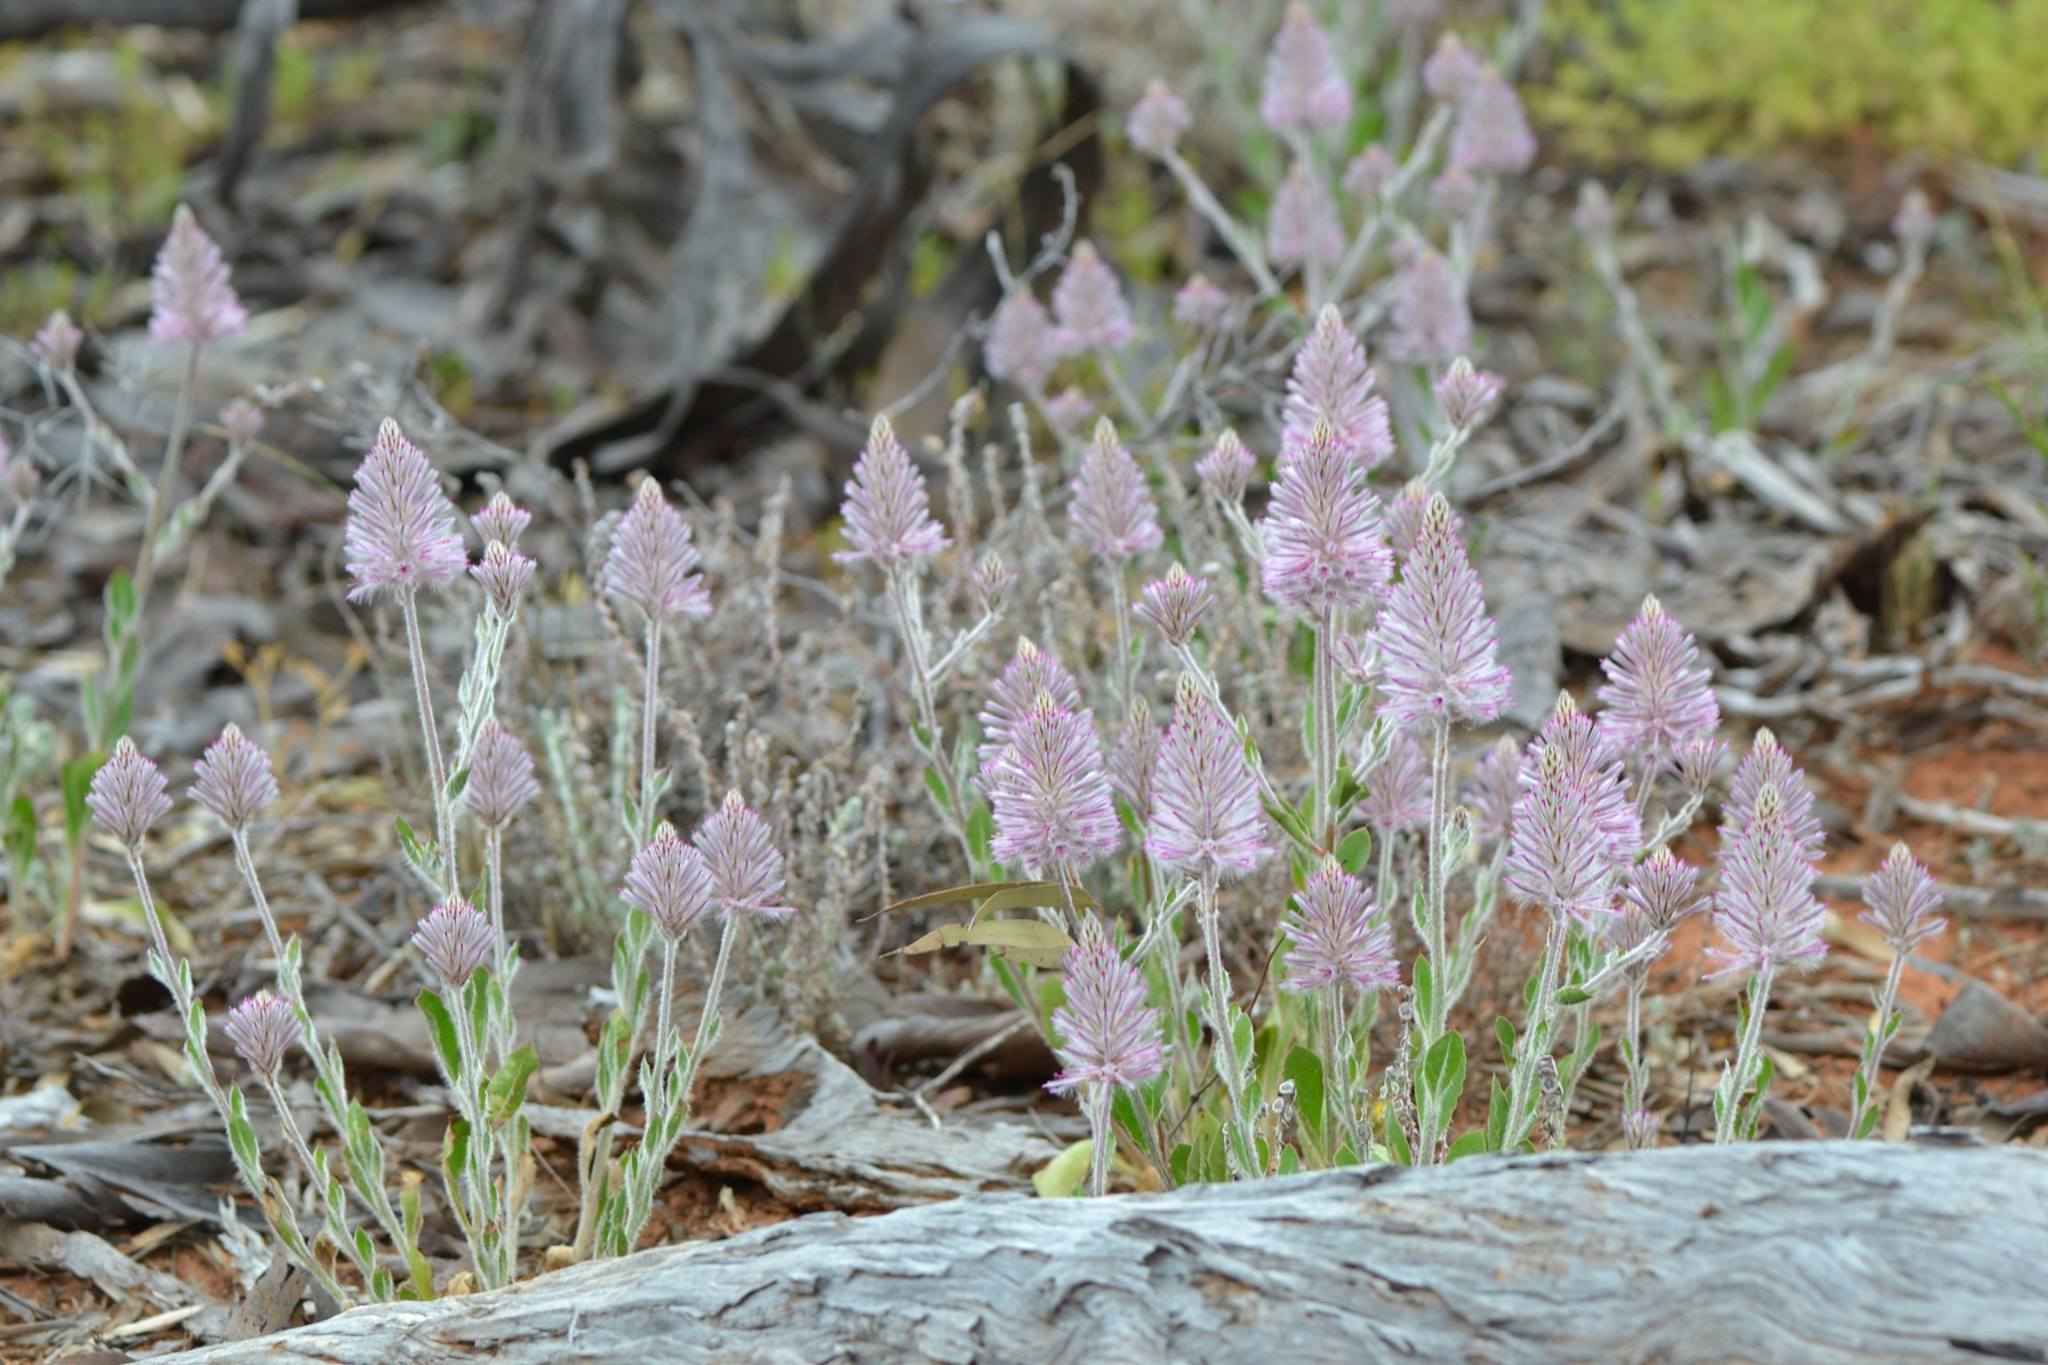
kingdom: Plantae
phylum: Tracheophyta
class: Magnoliopsida
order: Caryophyllales
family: Amaranthaceae
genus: Ptilotus
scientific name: Ptilotus exaltatus
